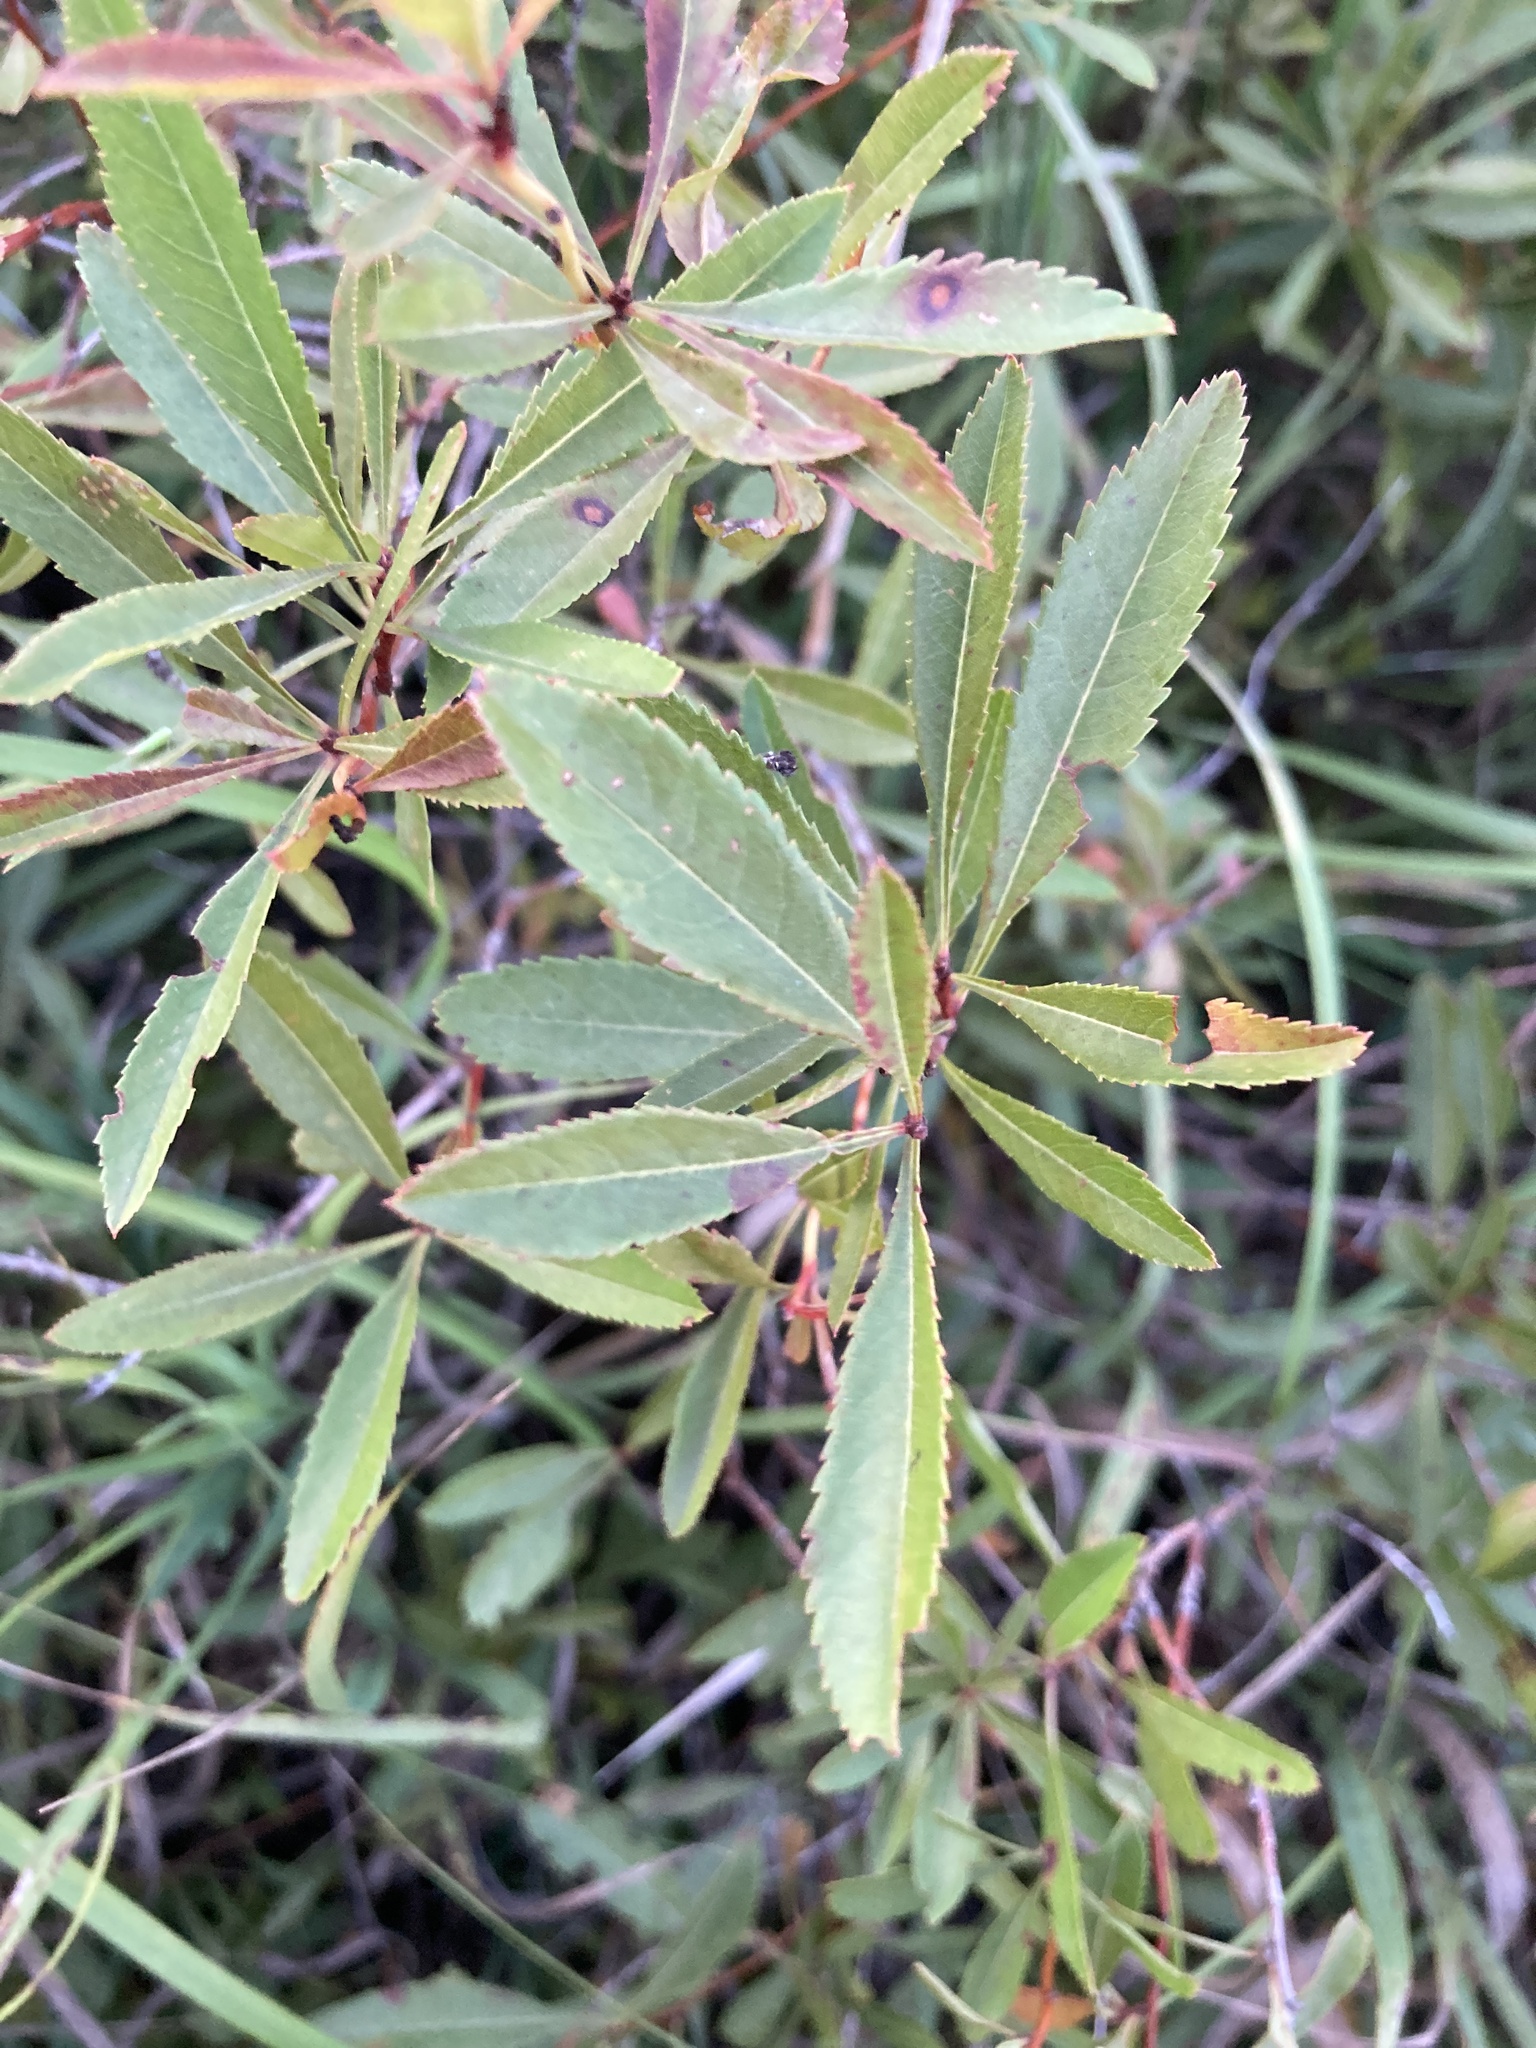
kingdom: Plantae
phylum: Tracheophyta
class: Magnoliopsida
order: Rosales
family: Rosaceae
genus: Prunus
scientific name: Prunus tenella
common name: Dwarf russian almond
